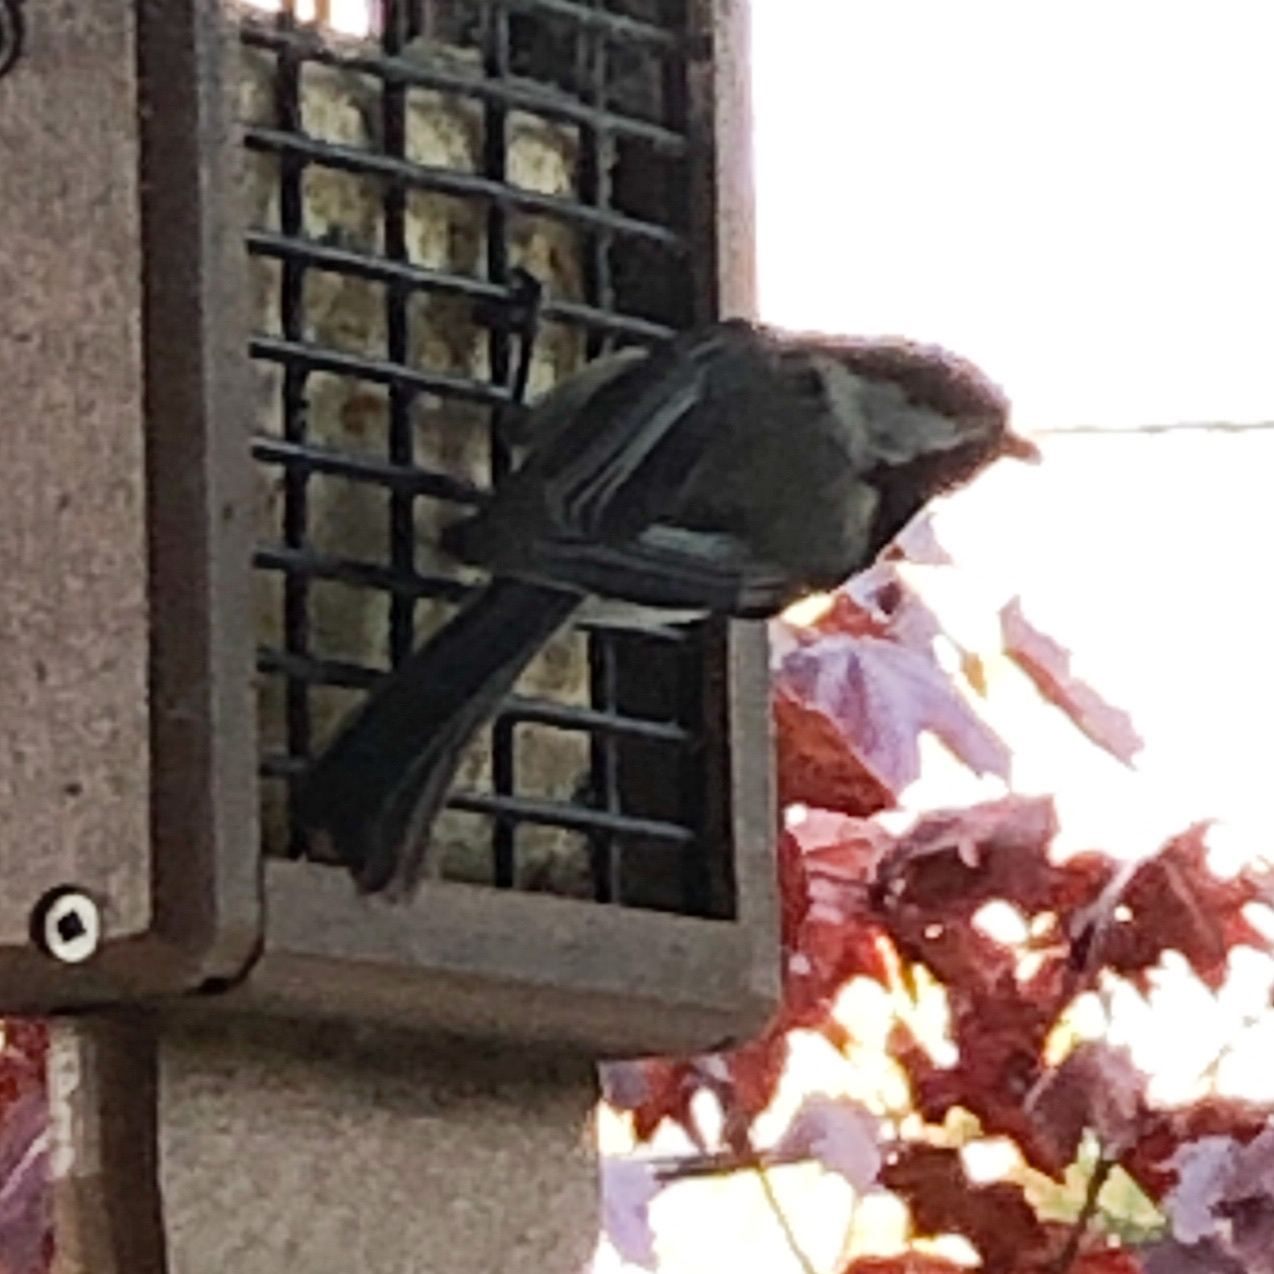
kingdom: Animalia
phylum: Chordata
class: Aves
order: Passeriformes
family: Paridae
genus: Poecile
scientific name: Poecile atricapillus
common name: Black-capped chickadee
